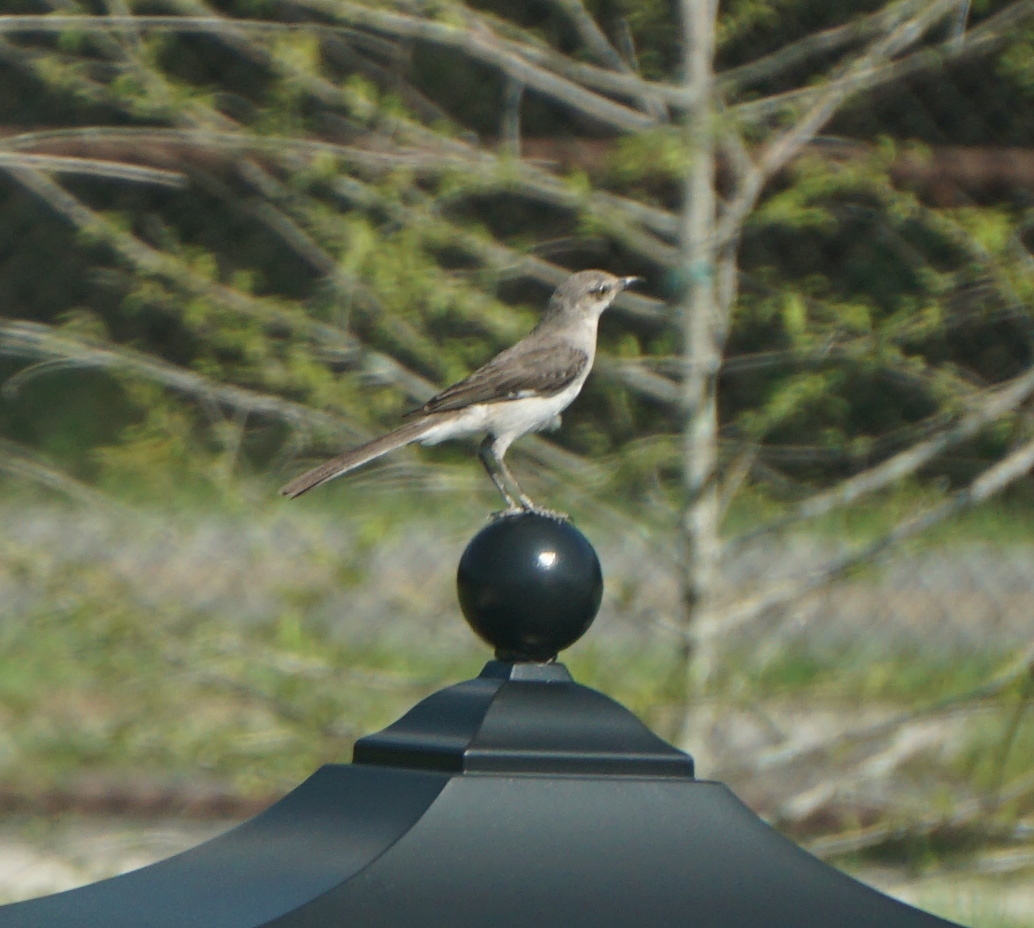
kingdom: Animalia
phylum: Chordata
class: Aves
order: Passeriformes
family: Mimidae
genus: Mimus
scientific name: Mimus polyglottos
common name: Northern mockingbird
